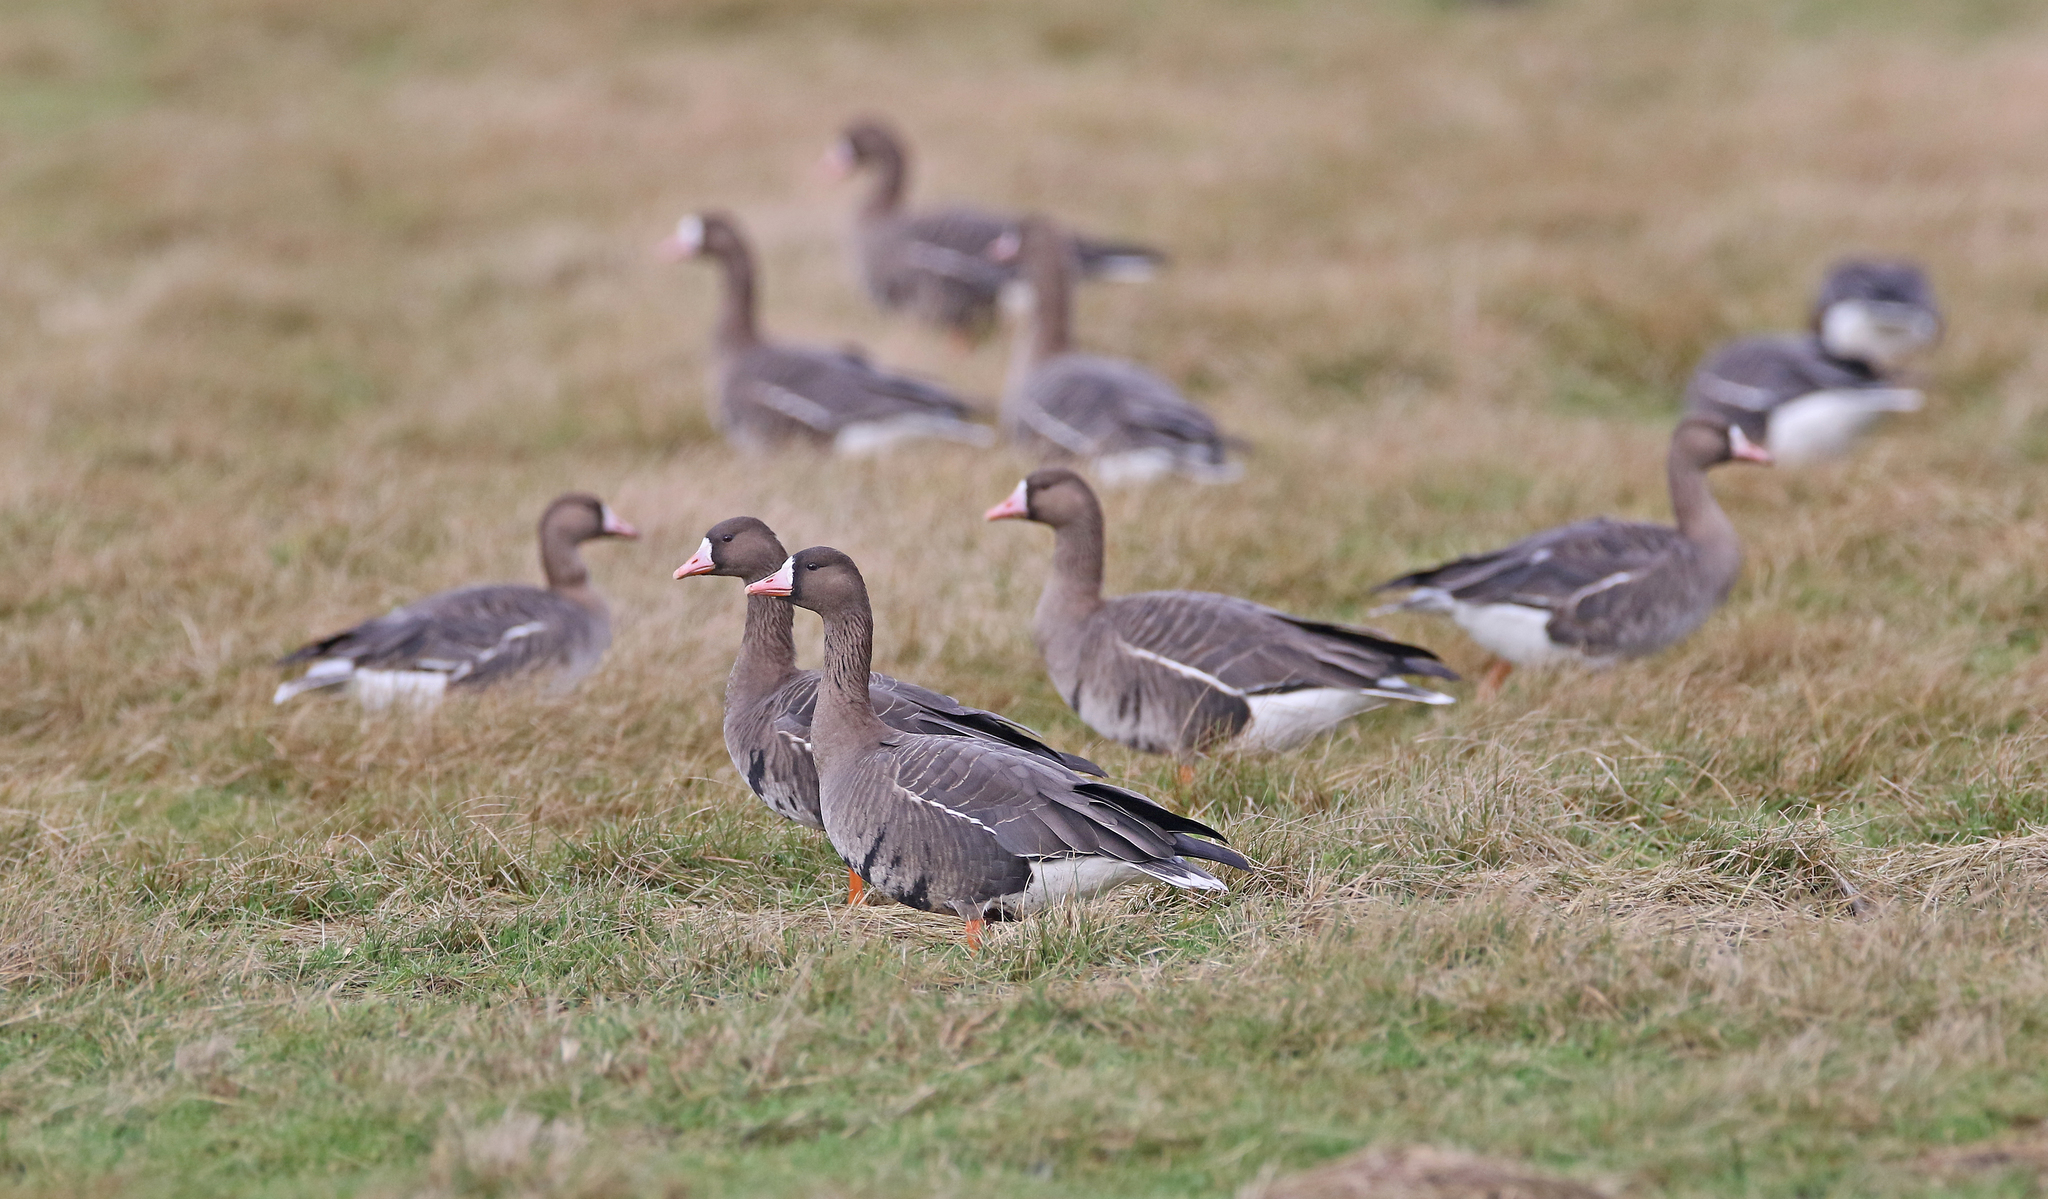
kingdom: Animalia
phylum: Chordata
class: Aves
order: Anseriformes
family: Anatidae
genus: Anser
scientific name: Anser albifrons
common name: Greater white-fronted goose
